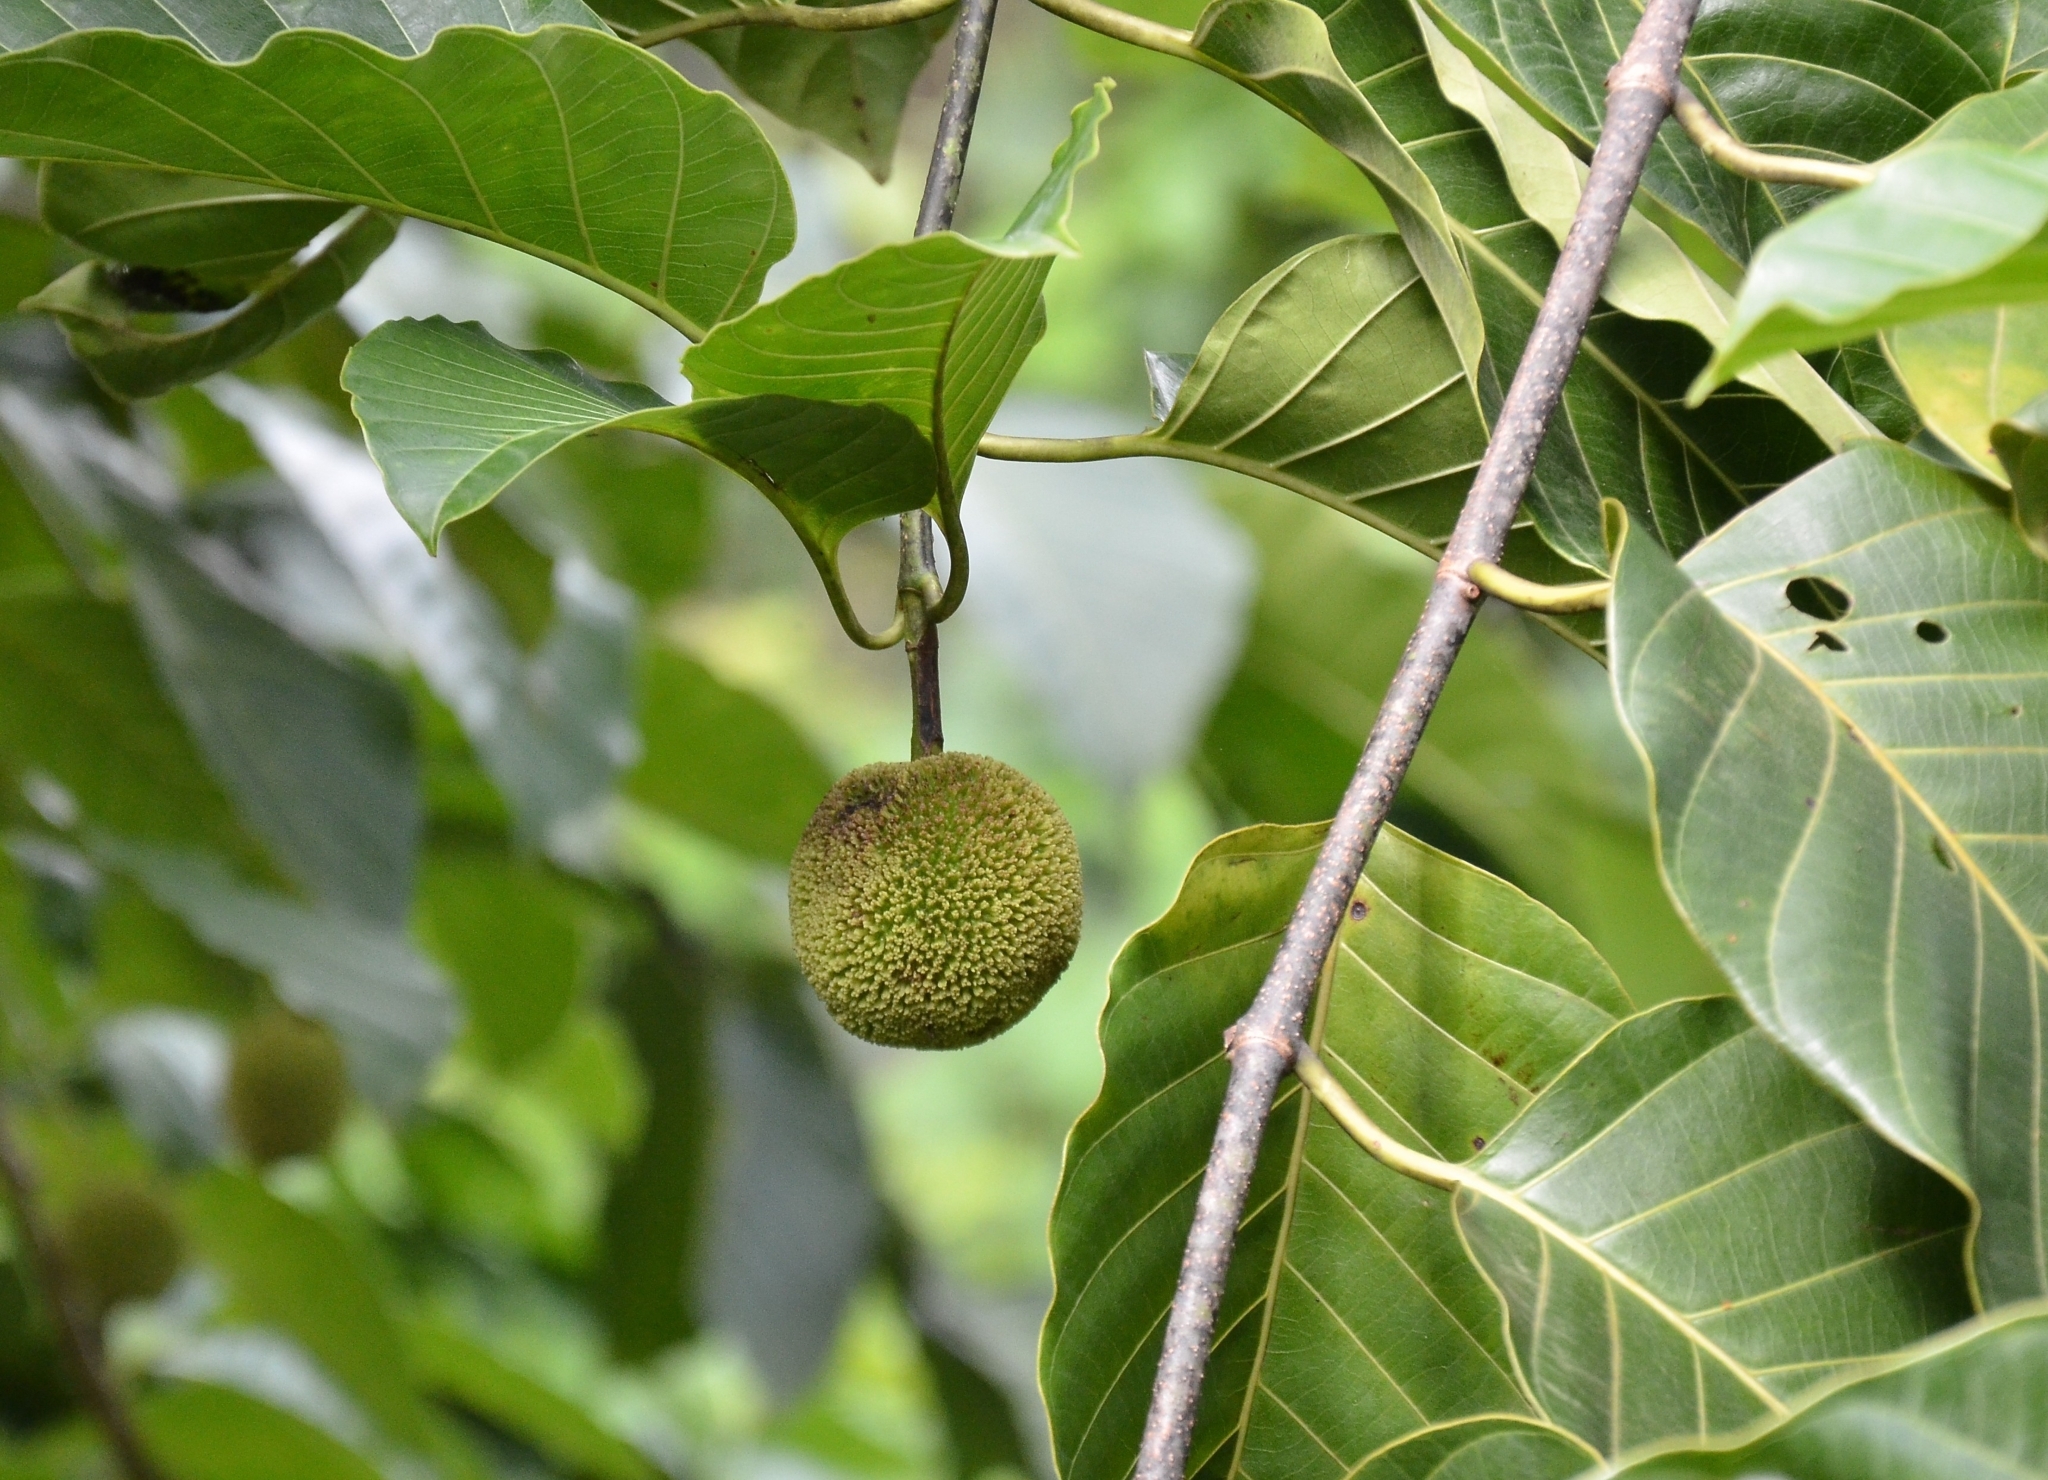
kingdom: Plantae
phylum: Tracheophyta
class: Magnoliopsida
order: Gentianales
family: Rubiaceae
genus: Neolamarckia
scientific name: Neolamarckia cadamba
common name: Leichhardt-pine
